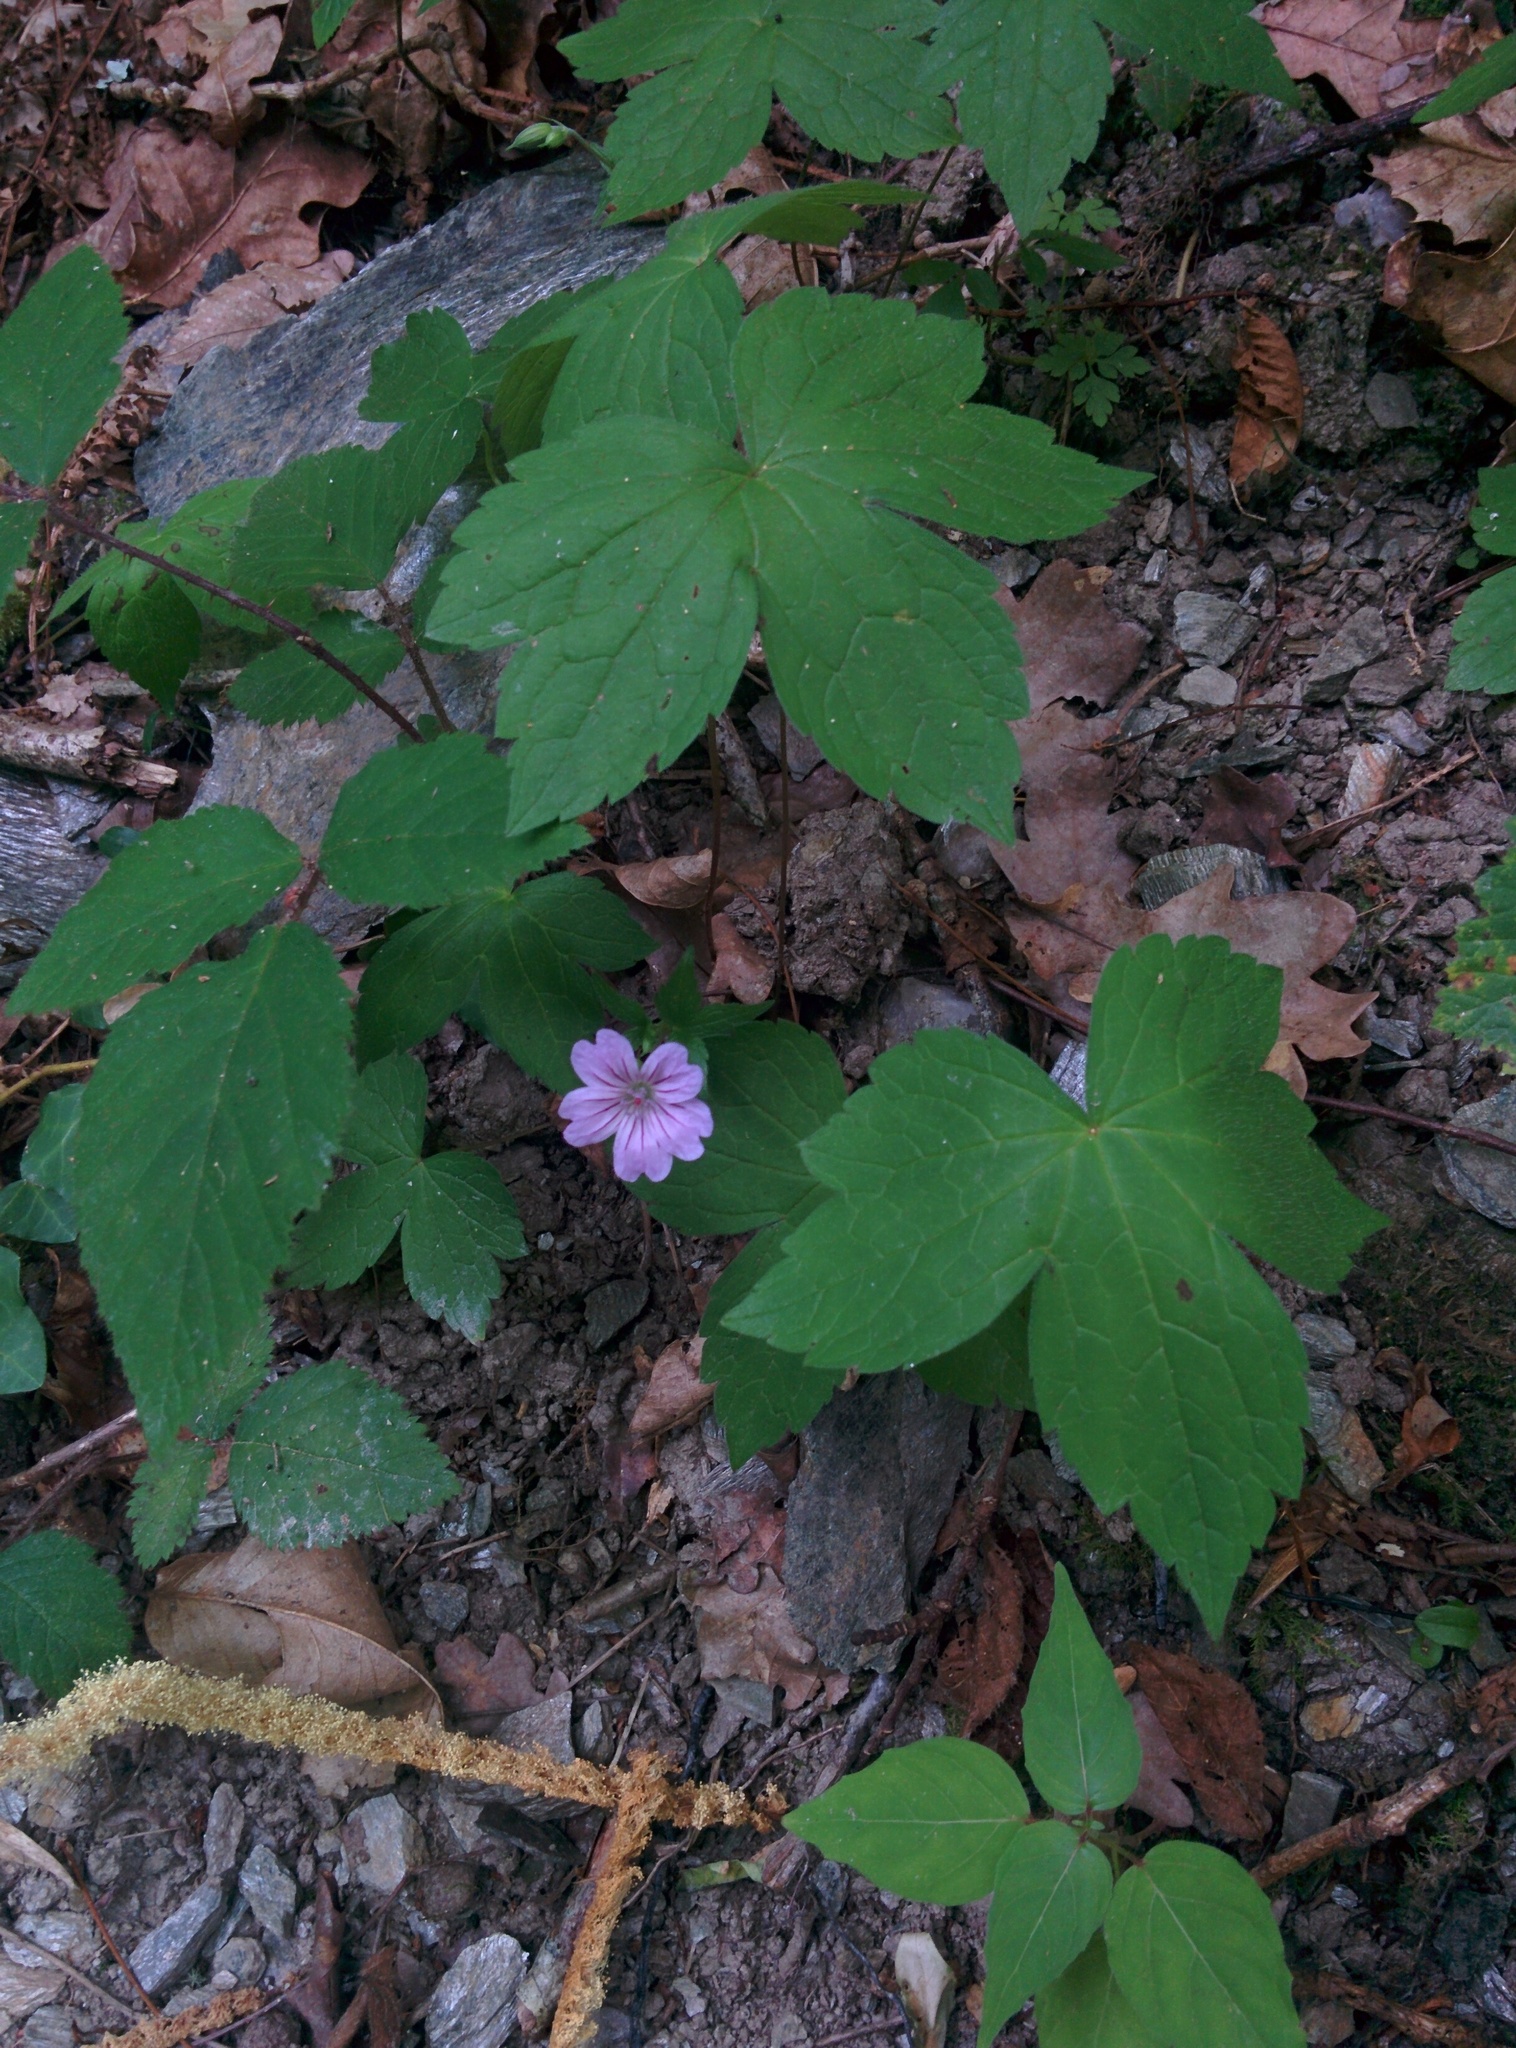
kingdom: Plantae
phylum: Tracheophyta
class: Magnoliopsida
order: Geraniales
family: Geraniaceae
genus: Geranium
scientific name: Geranium nodosum
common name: Knotted crane's-bill
